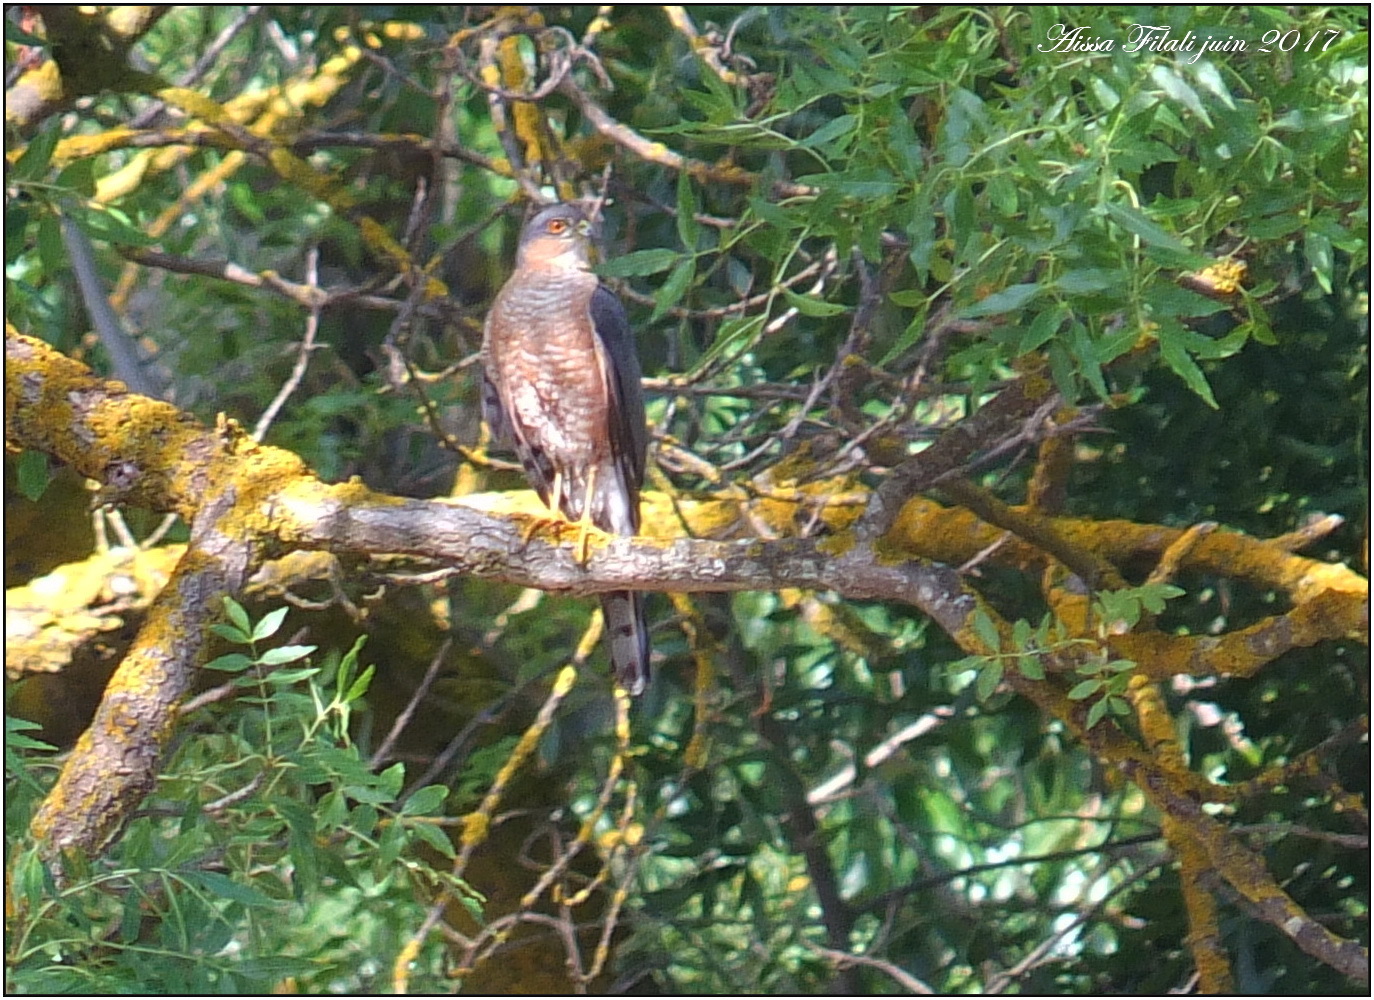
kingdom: Animalia
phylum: Chordata
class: Aves
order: Accipitriformes
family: Accipitridae
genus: Accipiter
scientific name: Accipiter nisus
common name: Eurasian sparrowhawk
